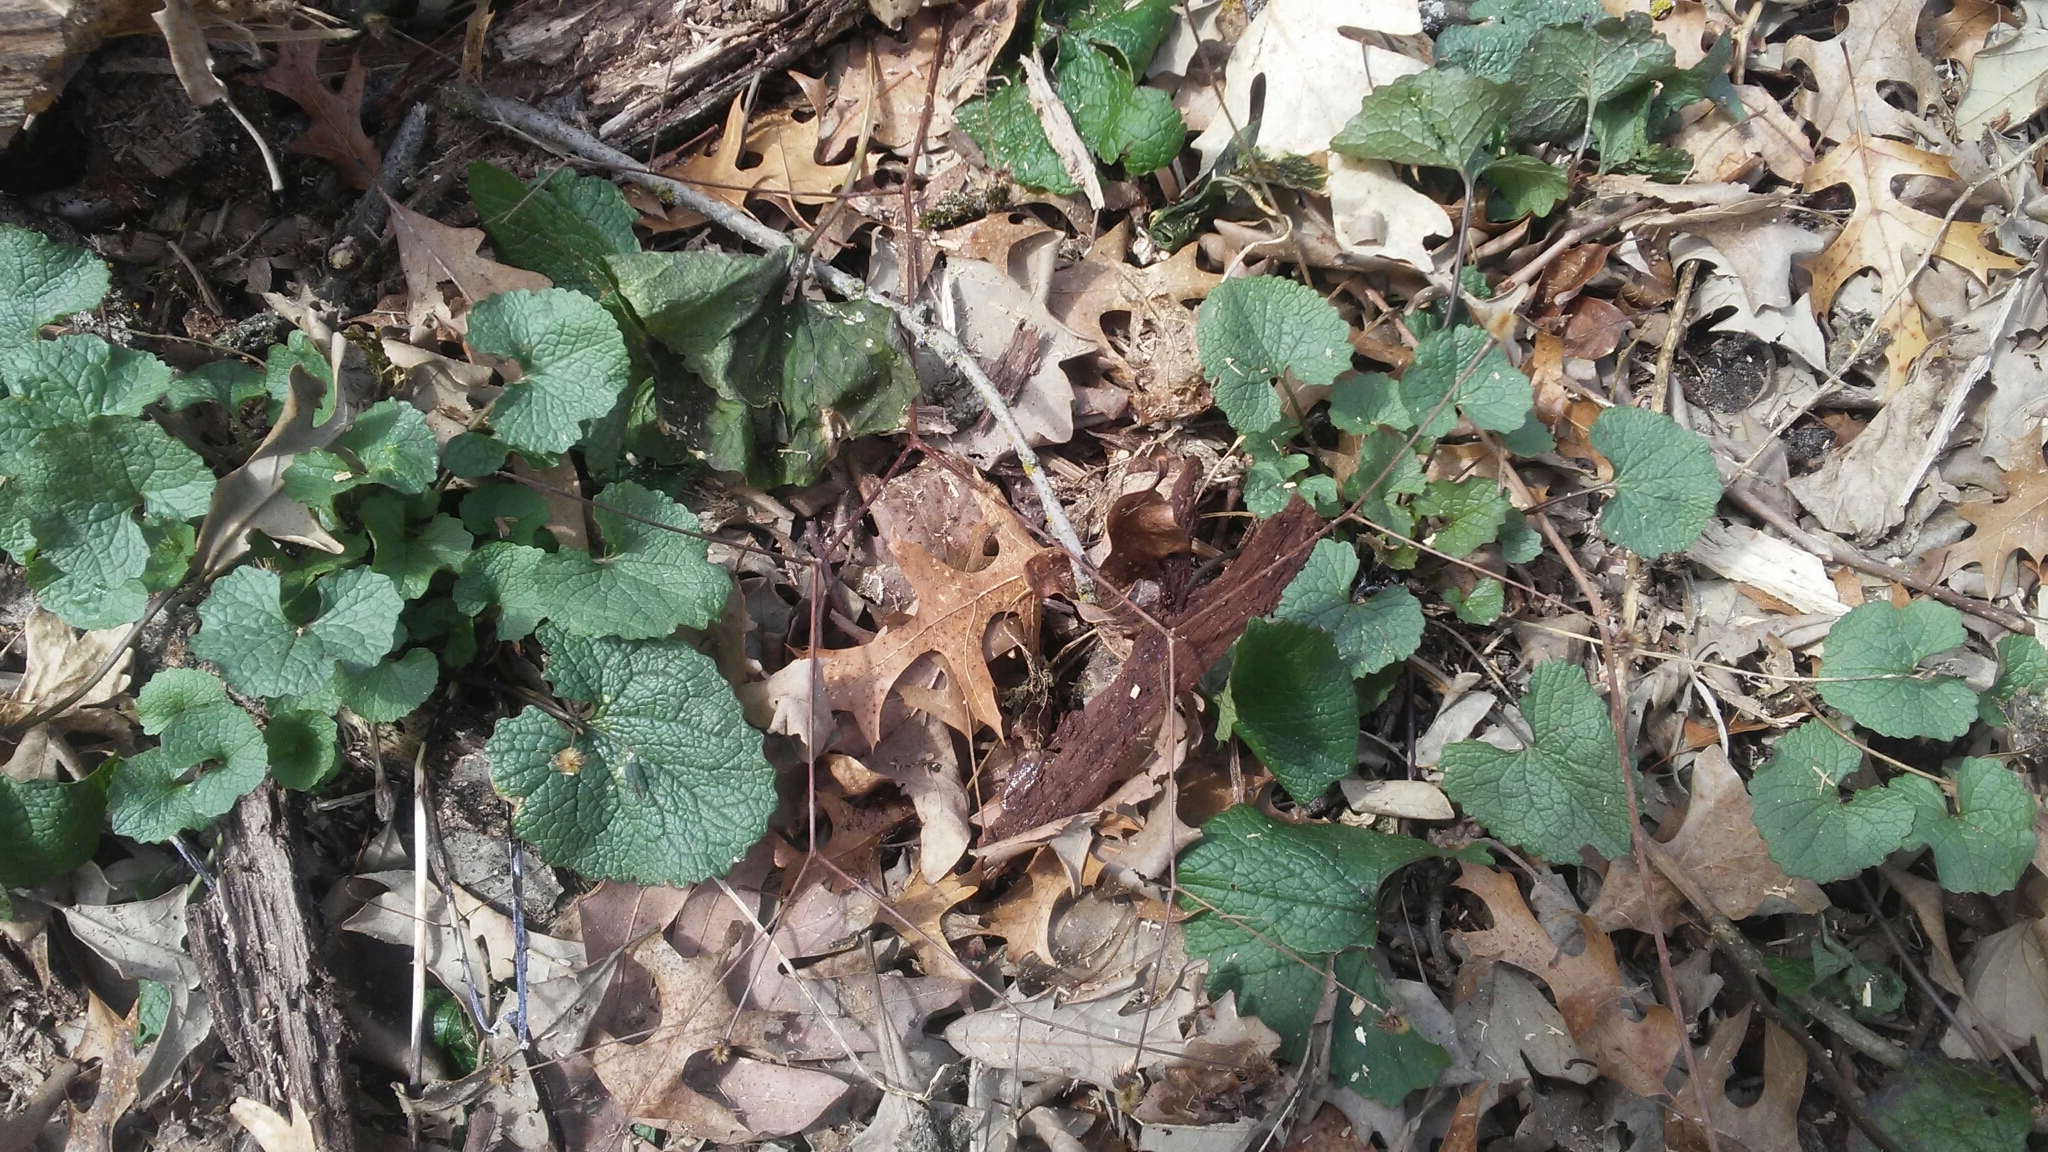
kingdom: Plantae
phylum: Tracheophyta
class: Magnoliopsida
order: Brassicales
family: Brassicaceae
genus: Alliaria
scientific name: Alliaria petiolata
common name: Garlic mustard
